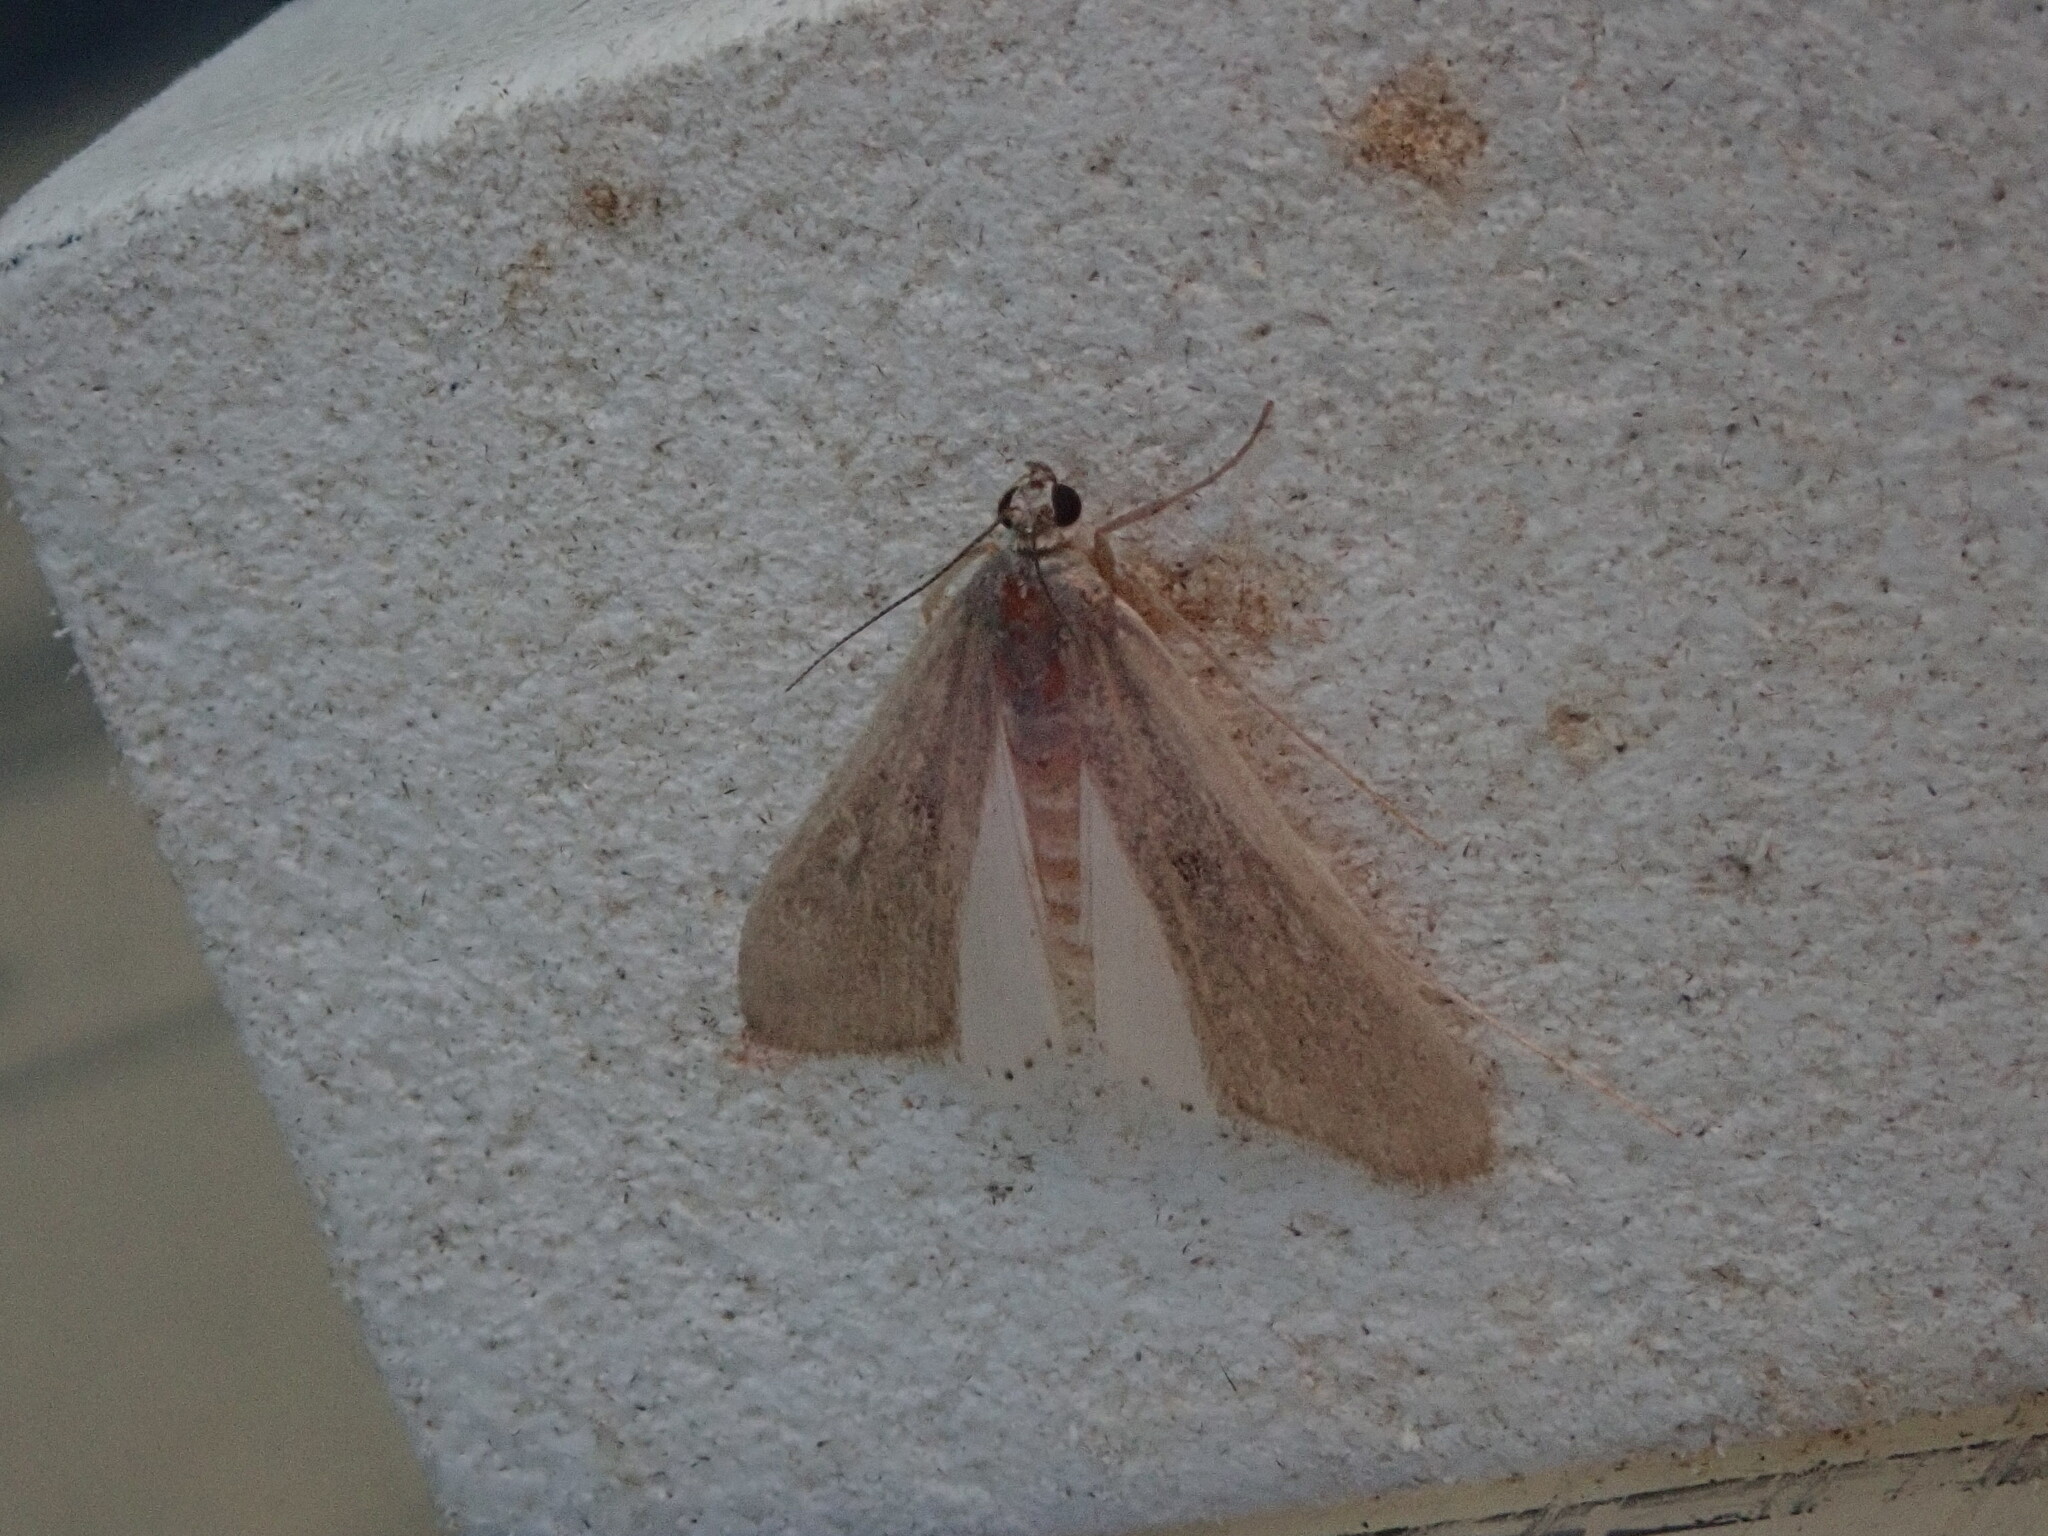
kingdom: Animalia
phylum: Arthropoda
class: Insecta
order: Lepidoptera
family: Crambidae
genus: Parapoynx
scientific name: Parapoynx maculalis
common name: Polymorphic pondweed moth
